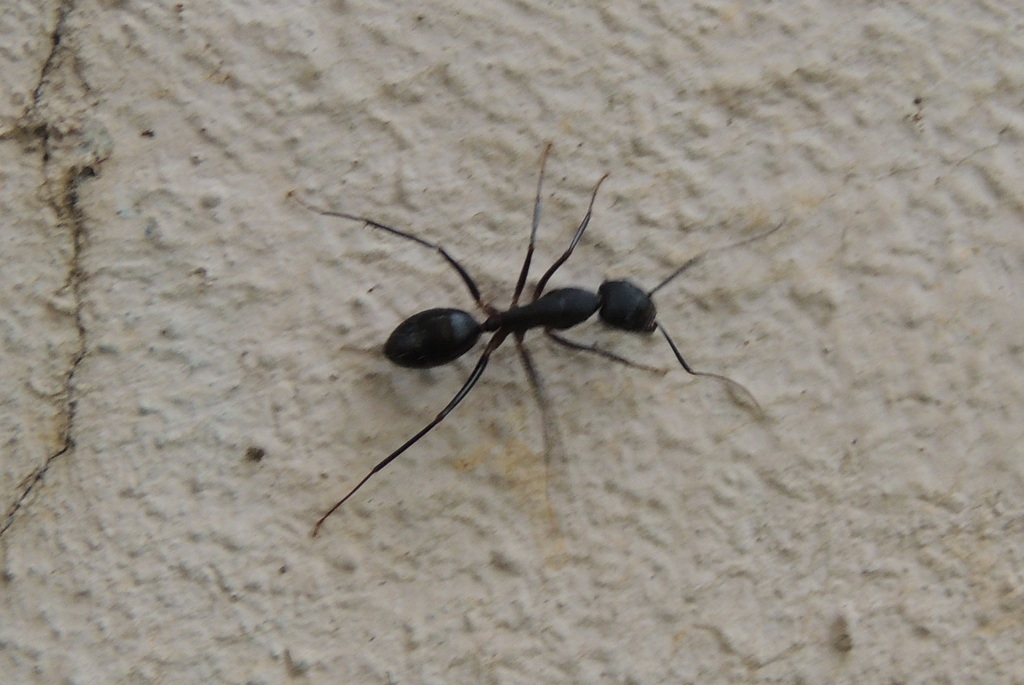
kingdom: Animalia
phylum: Arthropoda
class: Insecta
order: Hymenoptera
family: Formicidae
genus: Camponotus
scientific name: Camponotus compressus
